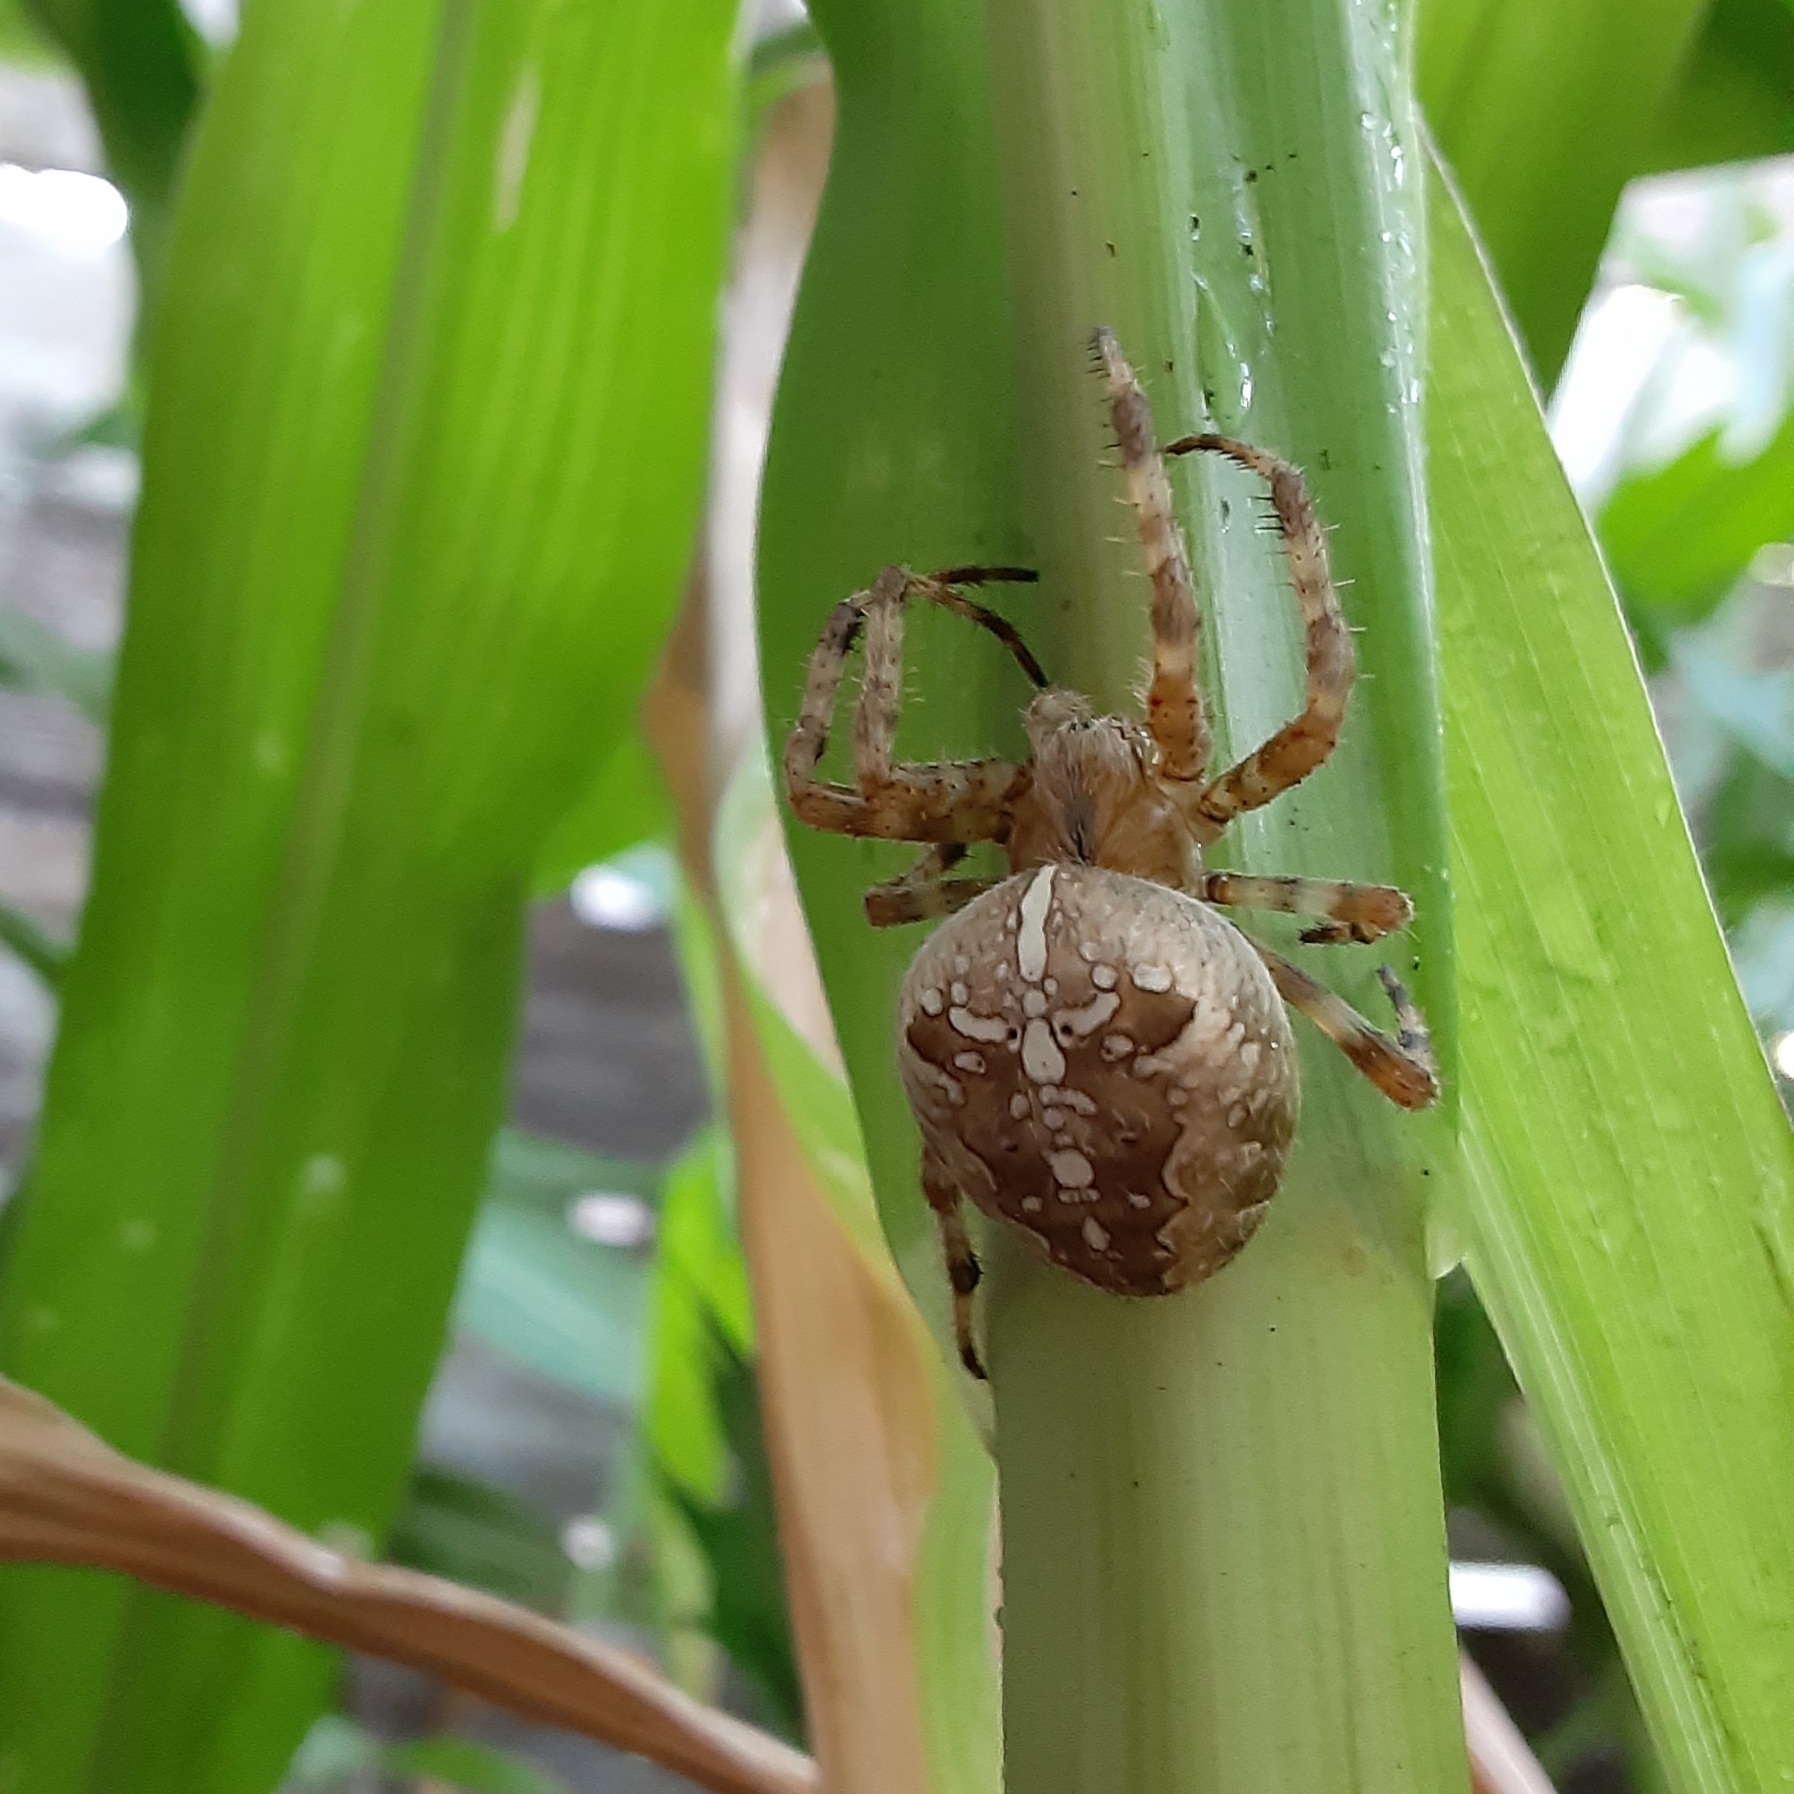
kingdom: Animalia
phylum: Arthropoda
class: Arachnida
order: Araneae
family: Araneidae
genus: Araneus
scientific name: Araneus diadematus
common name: Cross orbweaver
